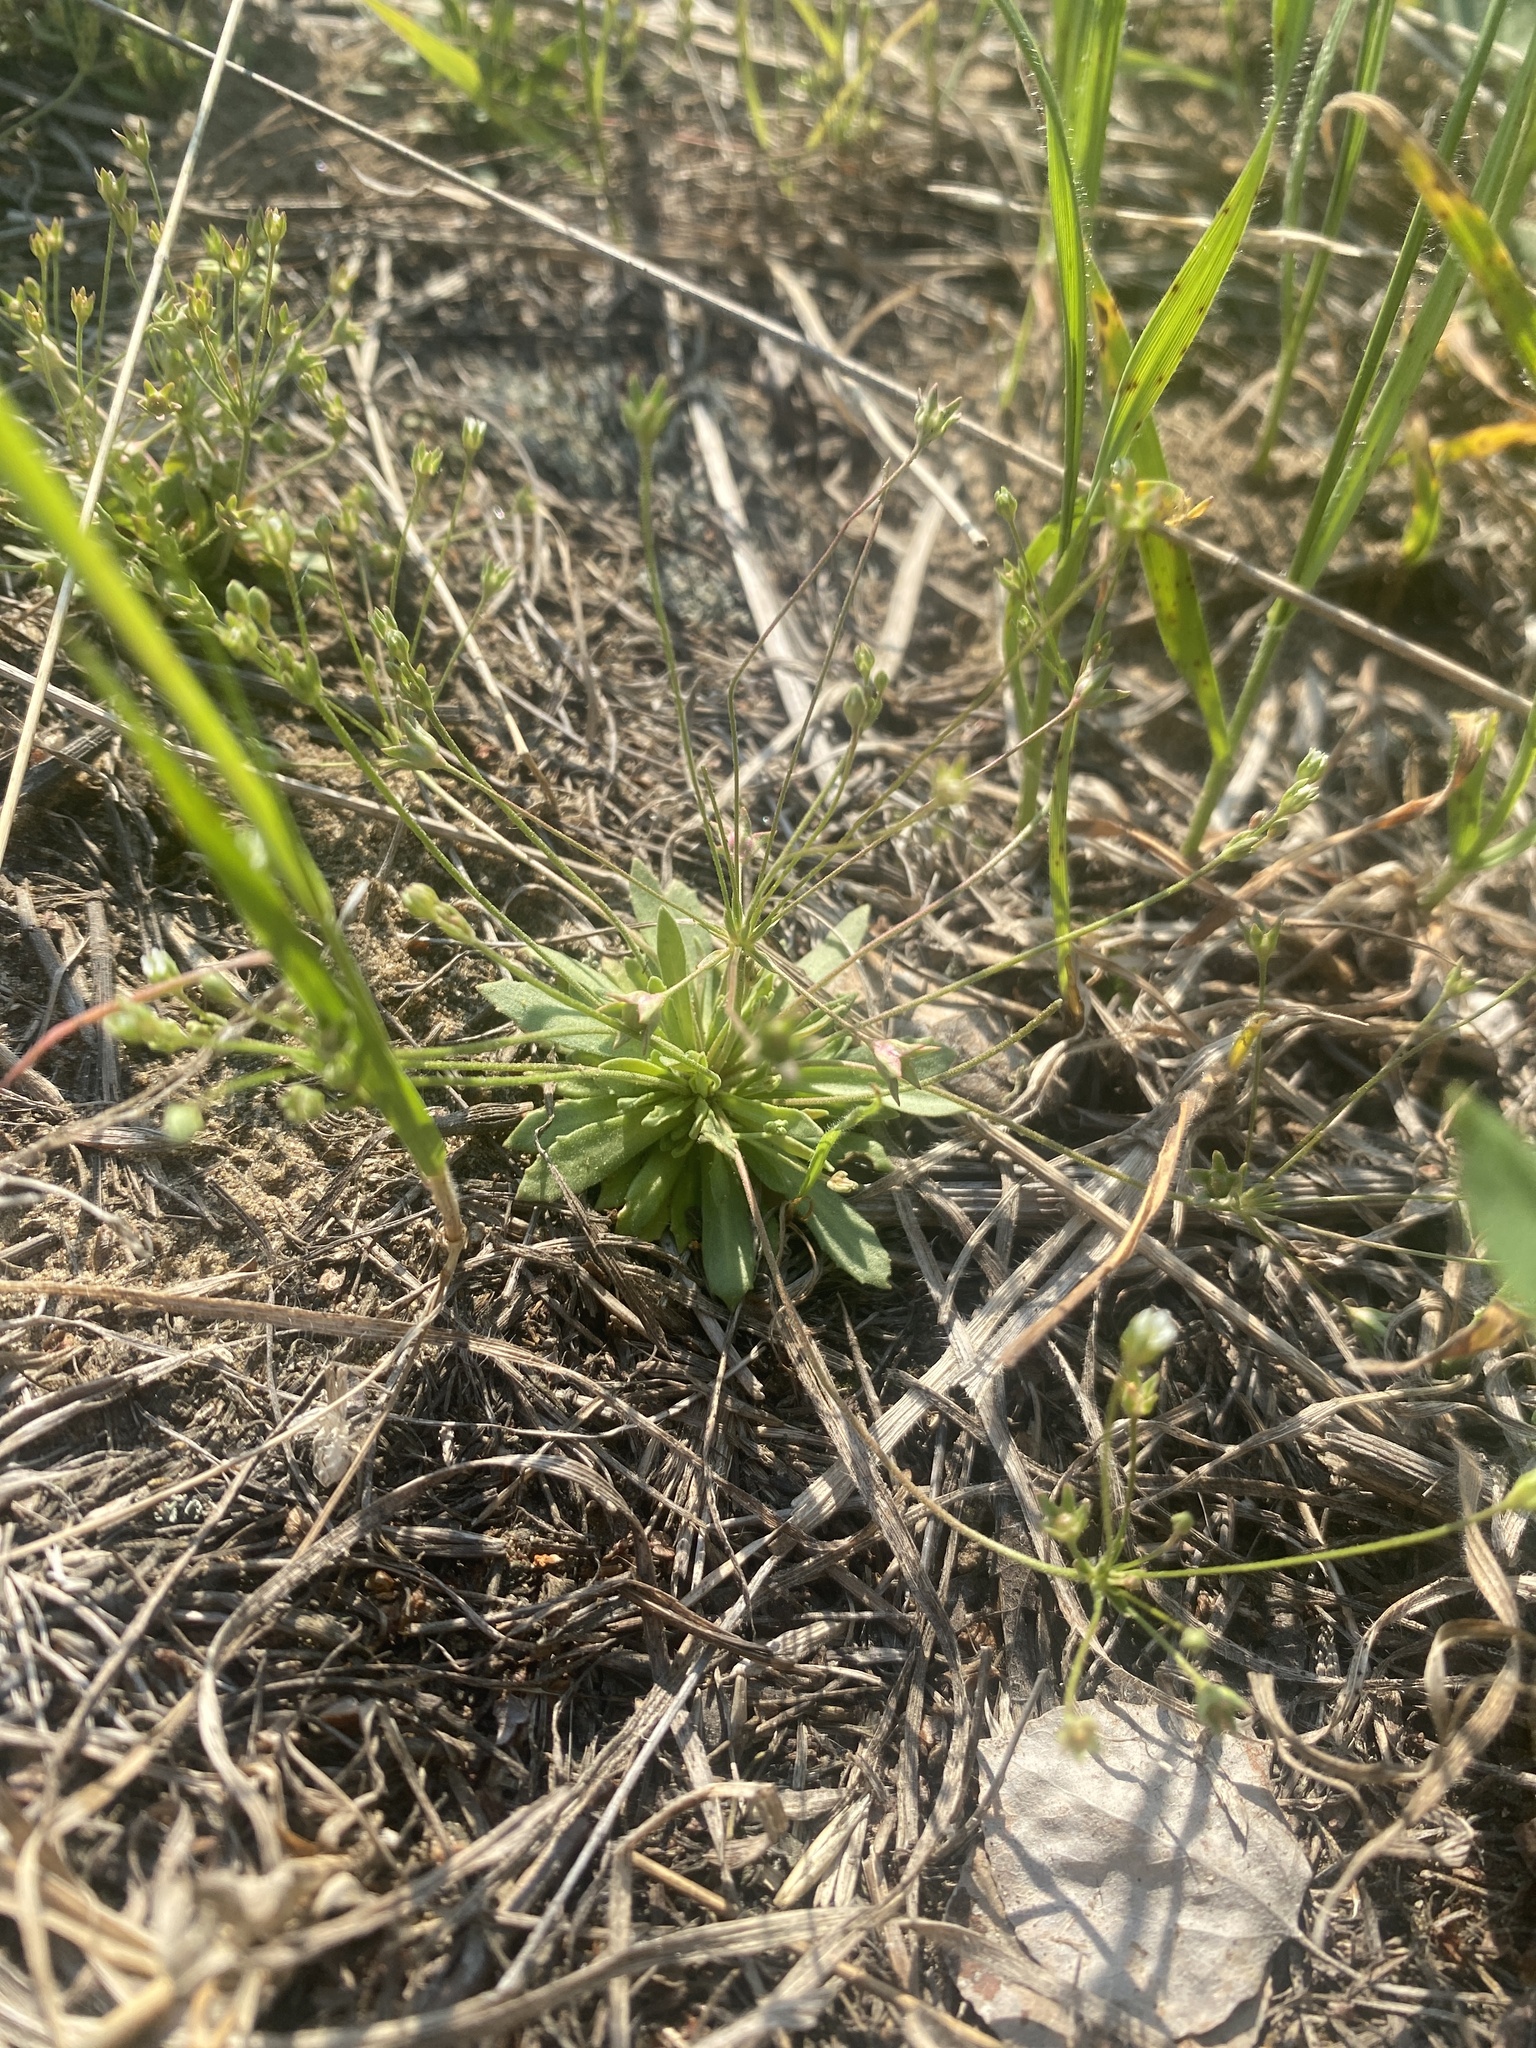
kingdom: Plantae
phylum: Tracheophyta
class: Magnoliopsida
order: Ericales
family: Primulaceae
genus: Androsace
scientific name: Androsace septentrionalis
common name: Hairy northern fairy-candelabra
